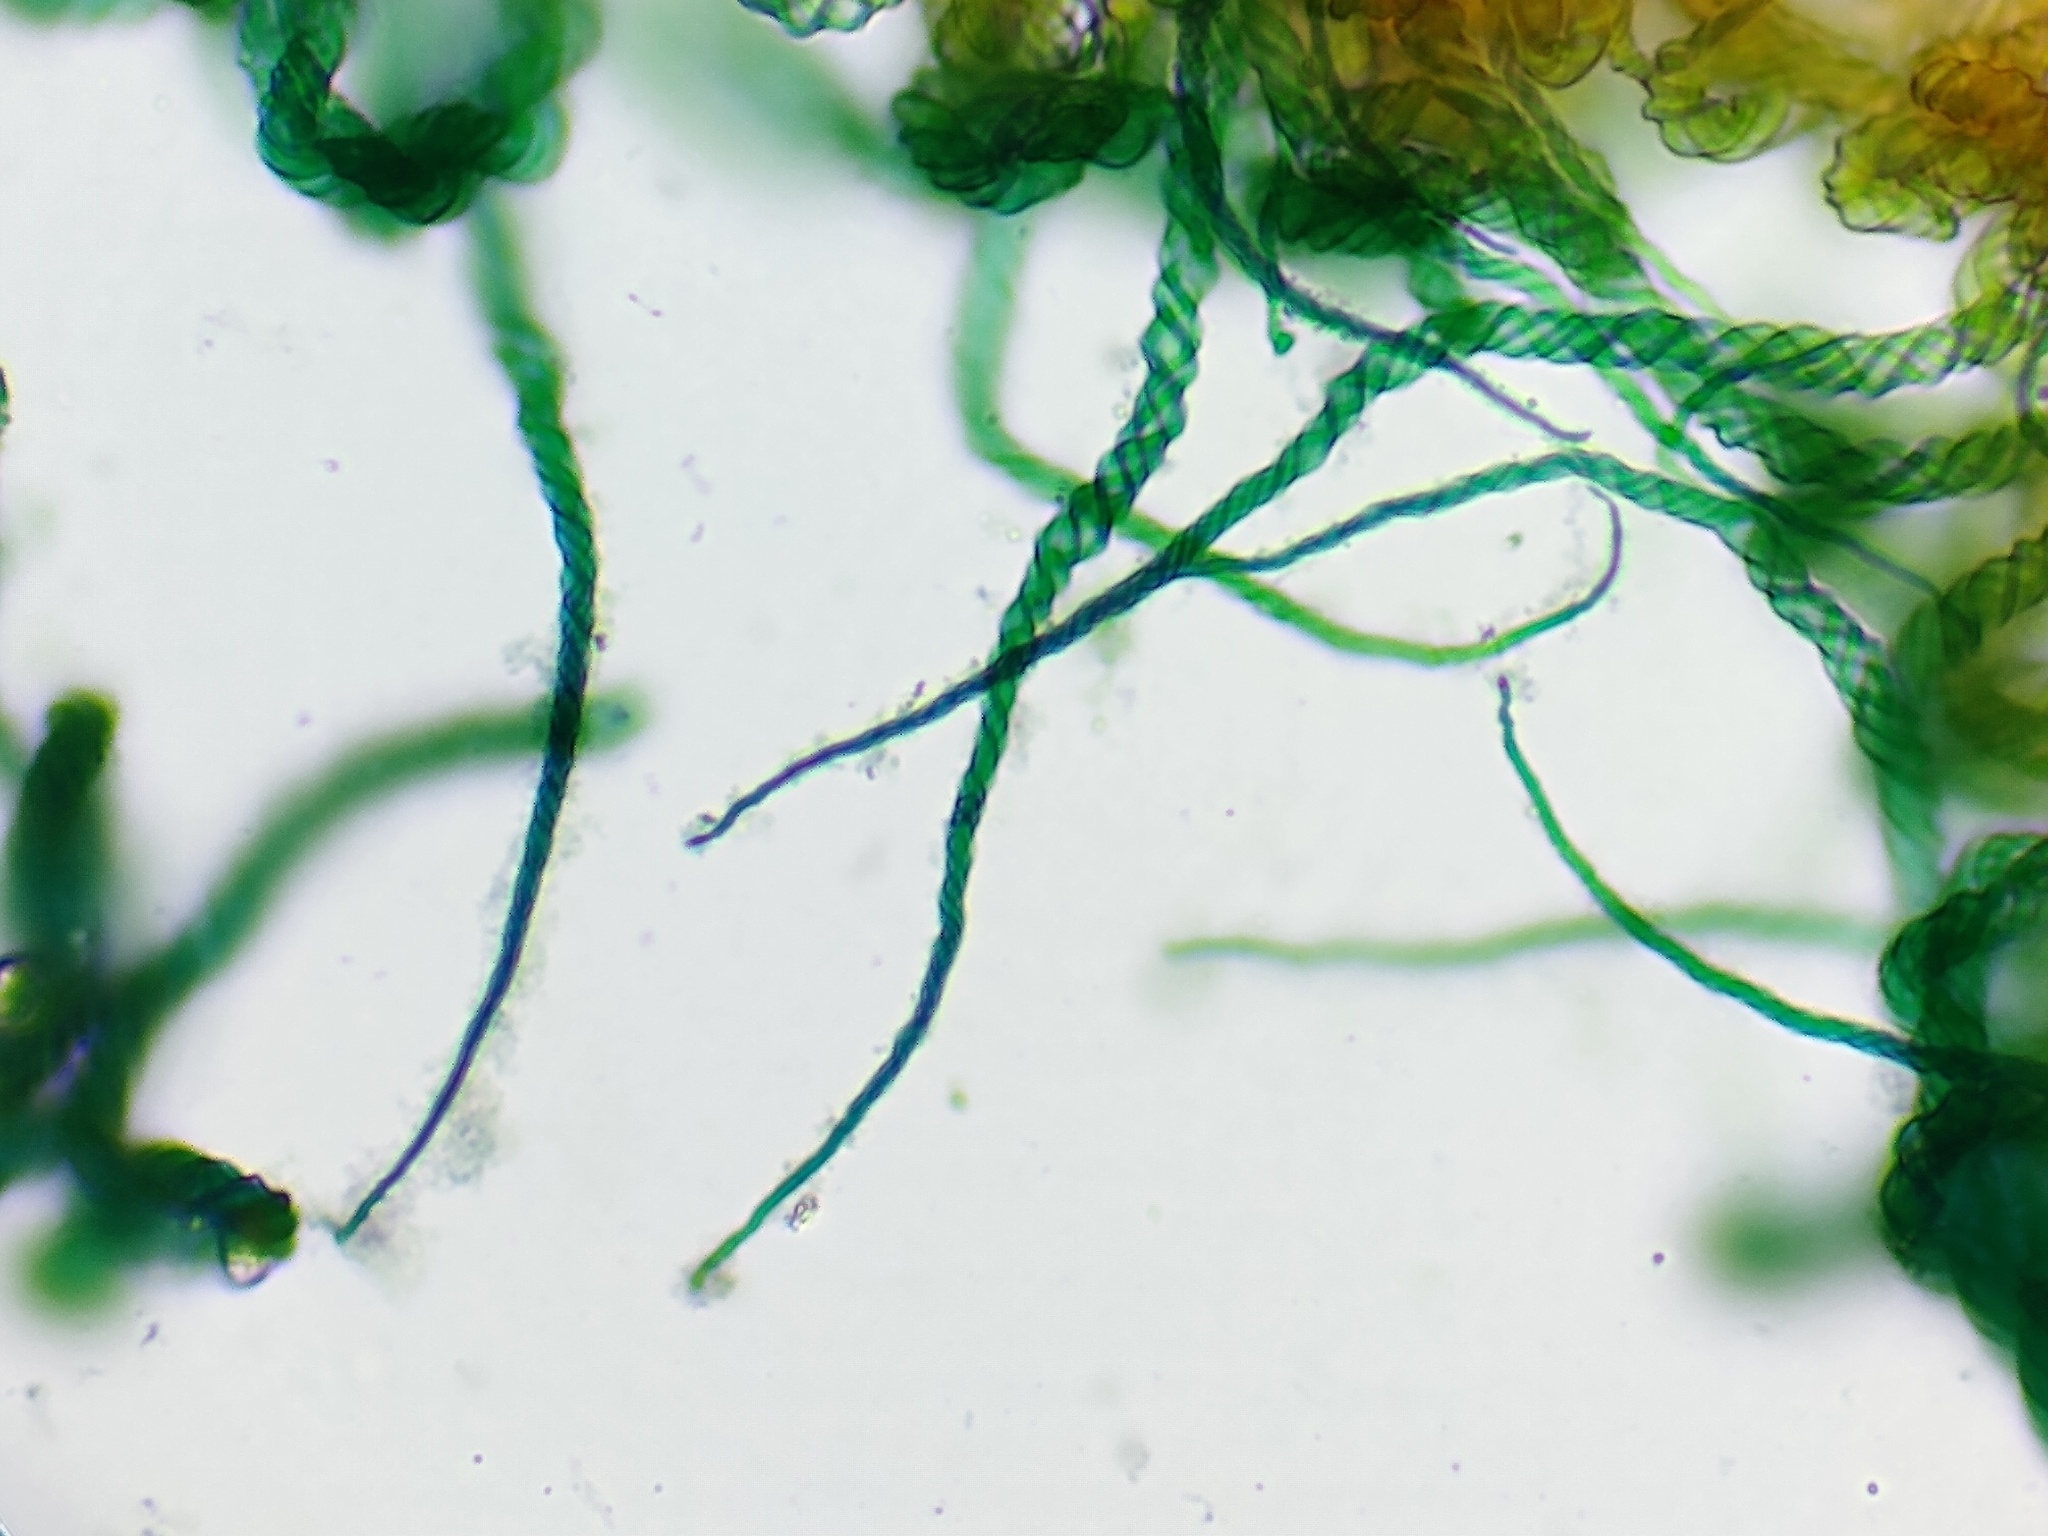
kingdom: Protozoa
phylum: Mycetozoa
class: Myxomycetes
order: Trichiales
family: Trichiaceae
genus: Trichia
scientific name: Trichia botrytis
